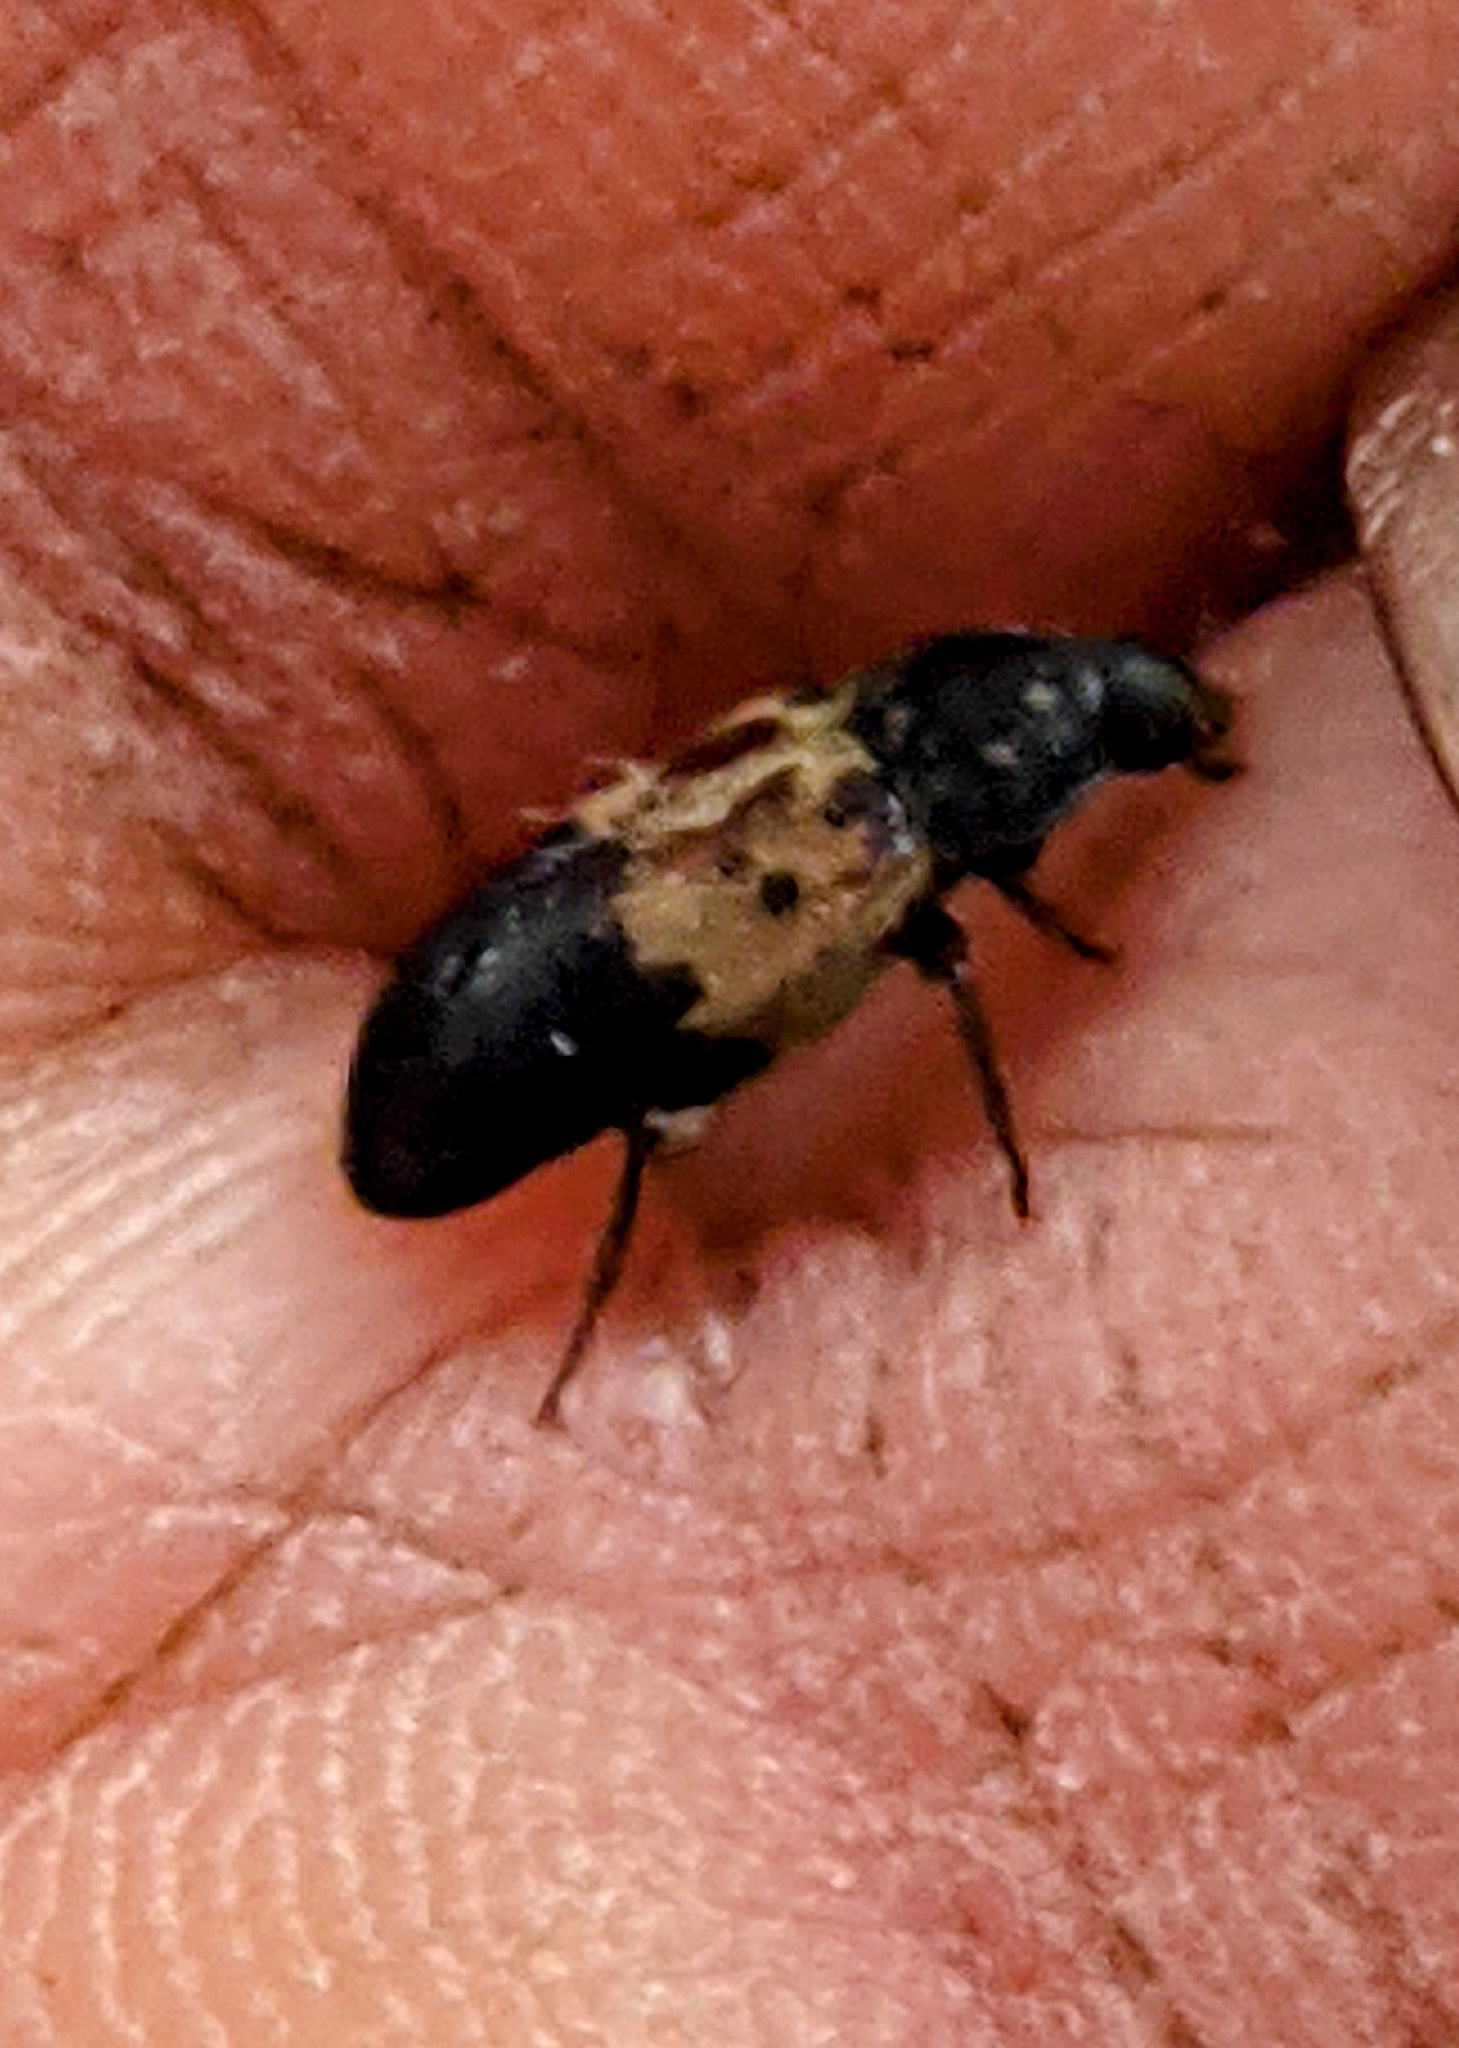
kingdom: Animalia
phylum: Arthropoda
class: Insecta
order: Coleoptera
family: Dermestidae
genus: Dermestes
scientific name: Dermestes lardarius
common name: Larder beetle
